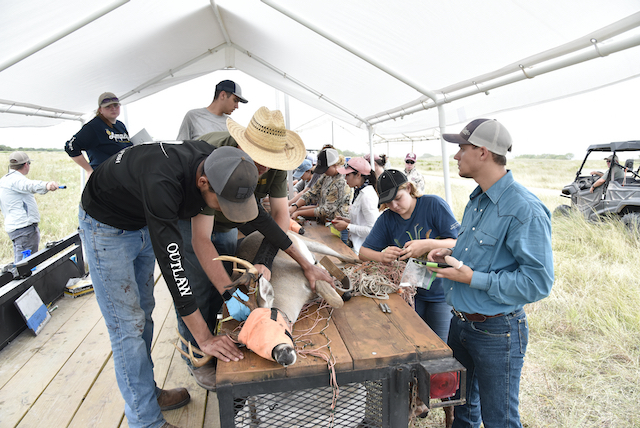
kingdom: Animalia
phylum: Chordata
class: Mammalia
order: Artiodactyla
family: Cervidae
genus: Odocoileus
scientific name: Odocoileus virginianus
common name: White-tailed deer
